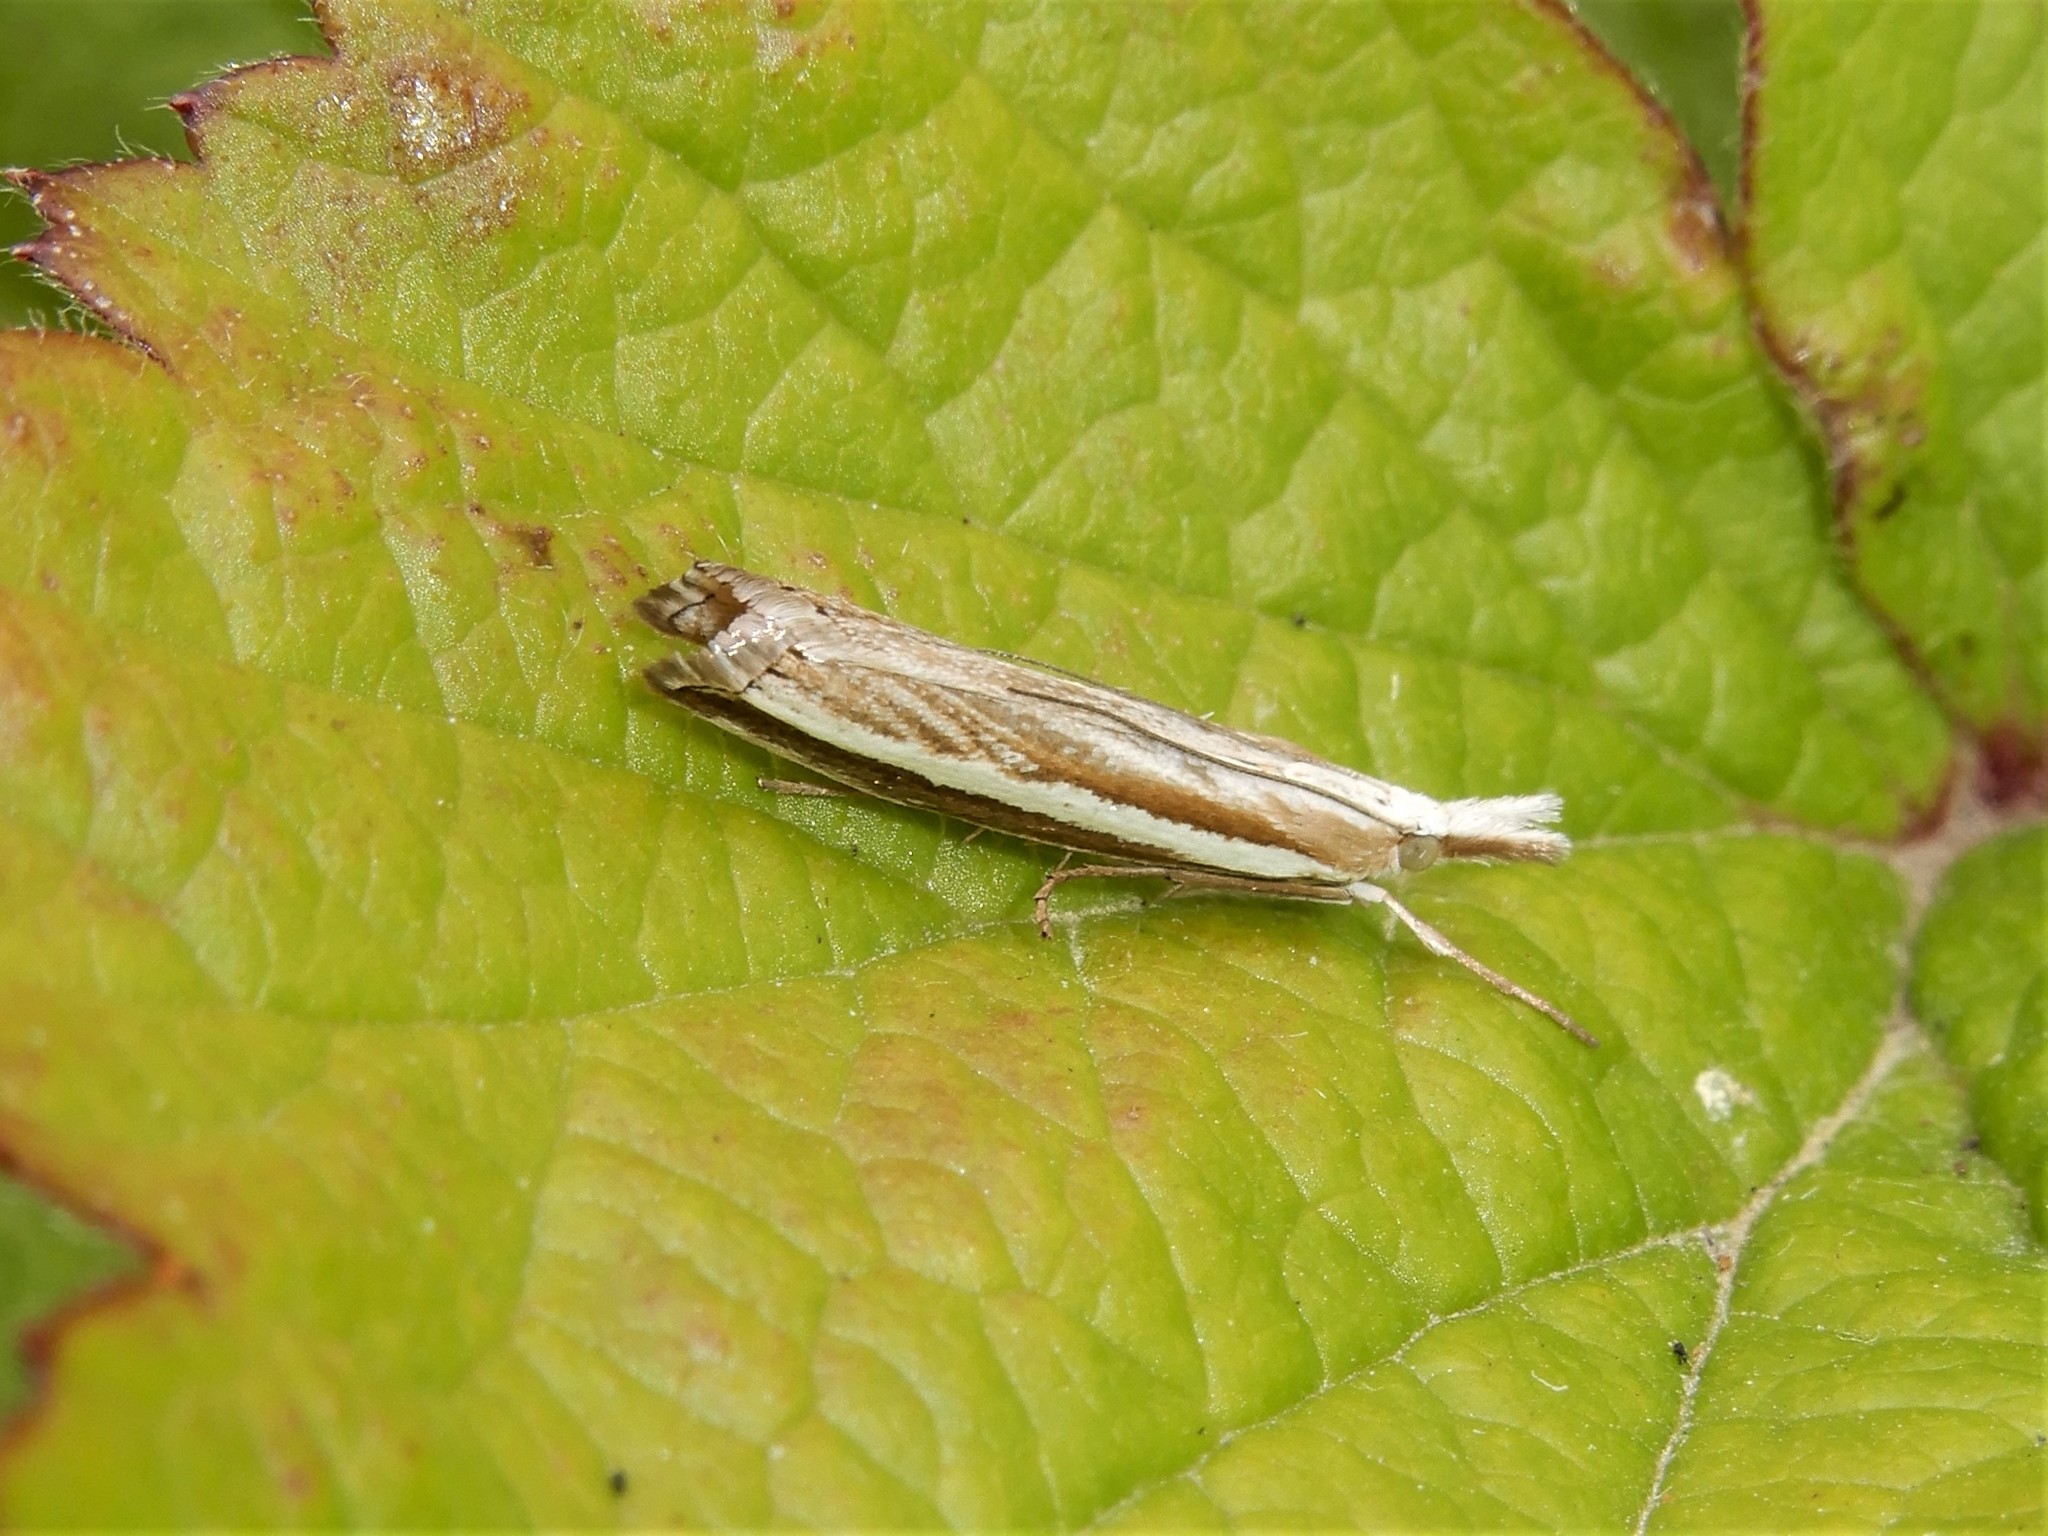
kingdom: Animalia
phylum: Arthropoda
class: Insecta
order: Lepidoptera
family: Crambidae
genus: Orocrambus
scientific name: Orocrambus vittellus
